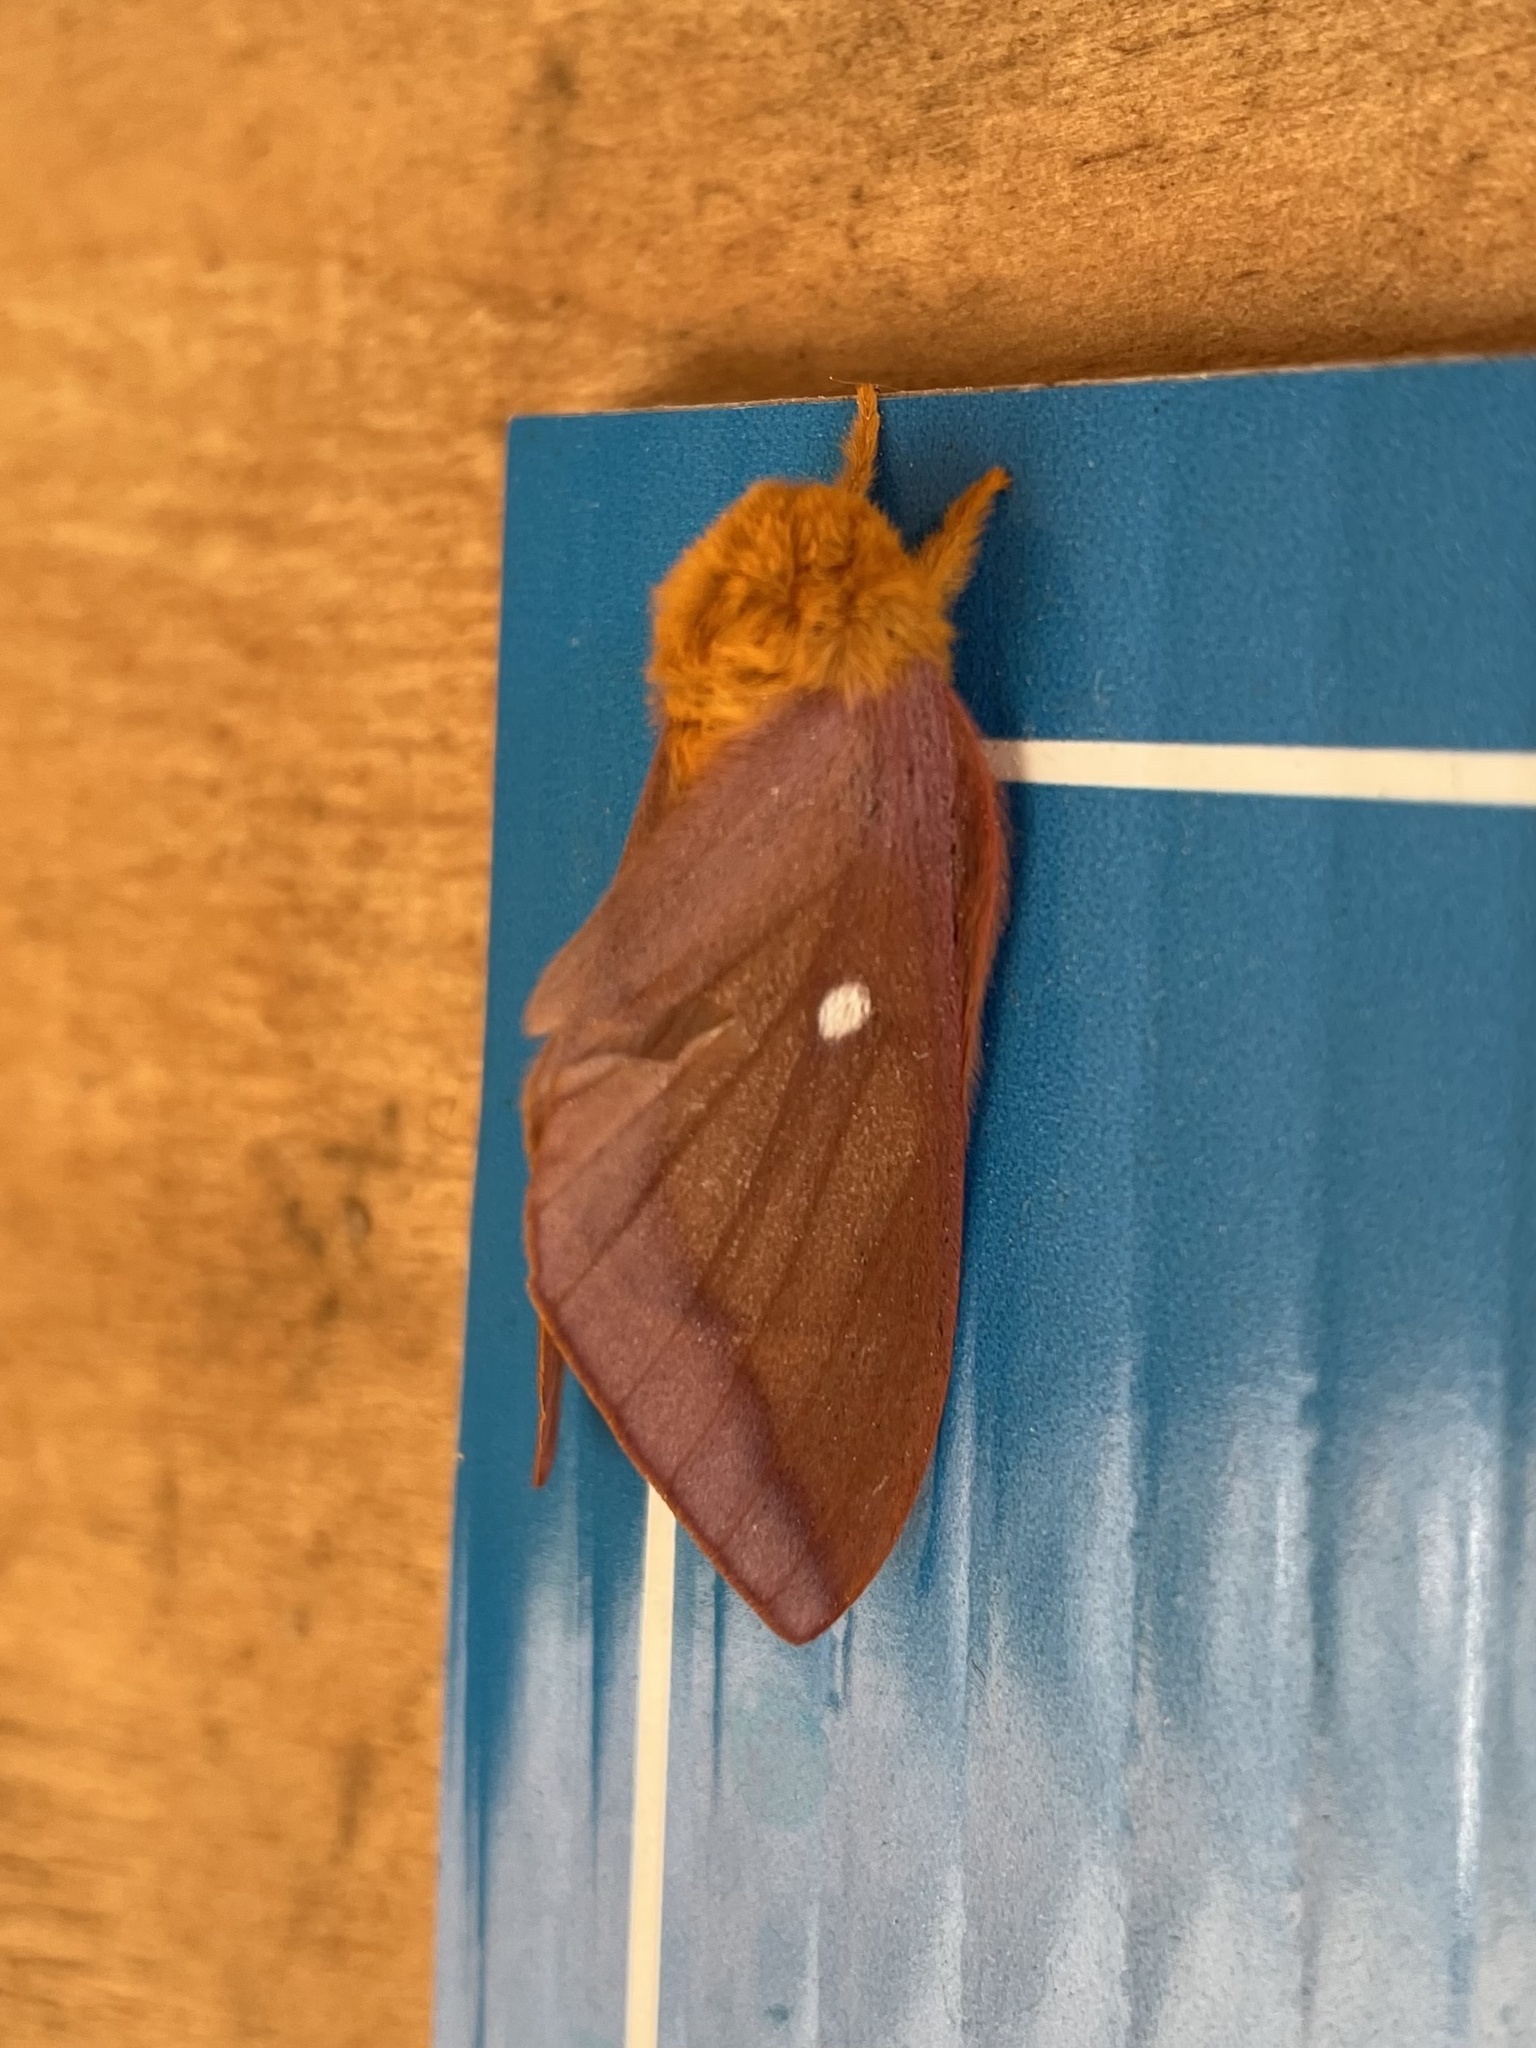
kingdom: Animalia
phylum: Arthropoda
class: Insecta
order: Lepidoptera
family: Saturniidae
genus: Anisota
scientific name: Anisota virginiensis
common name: Pink striped oakworm moth
